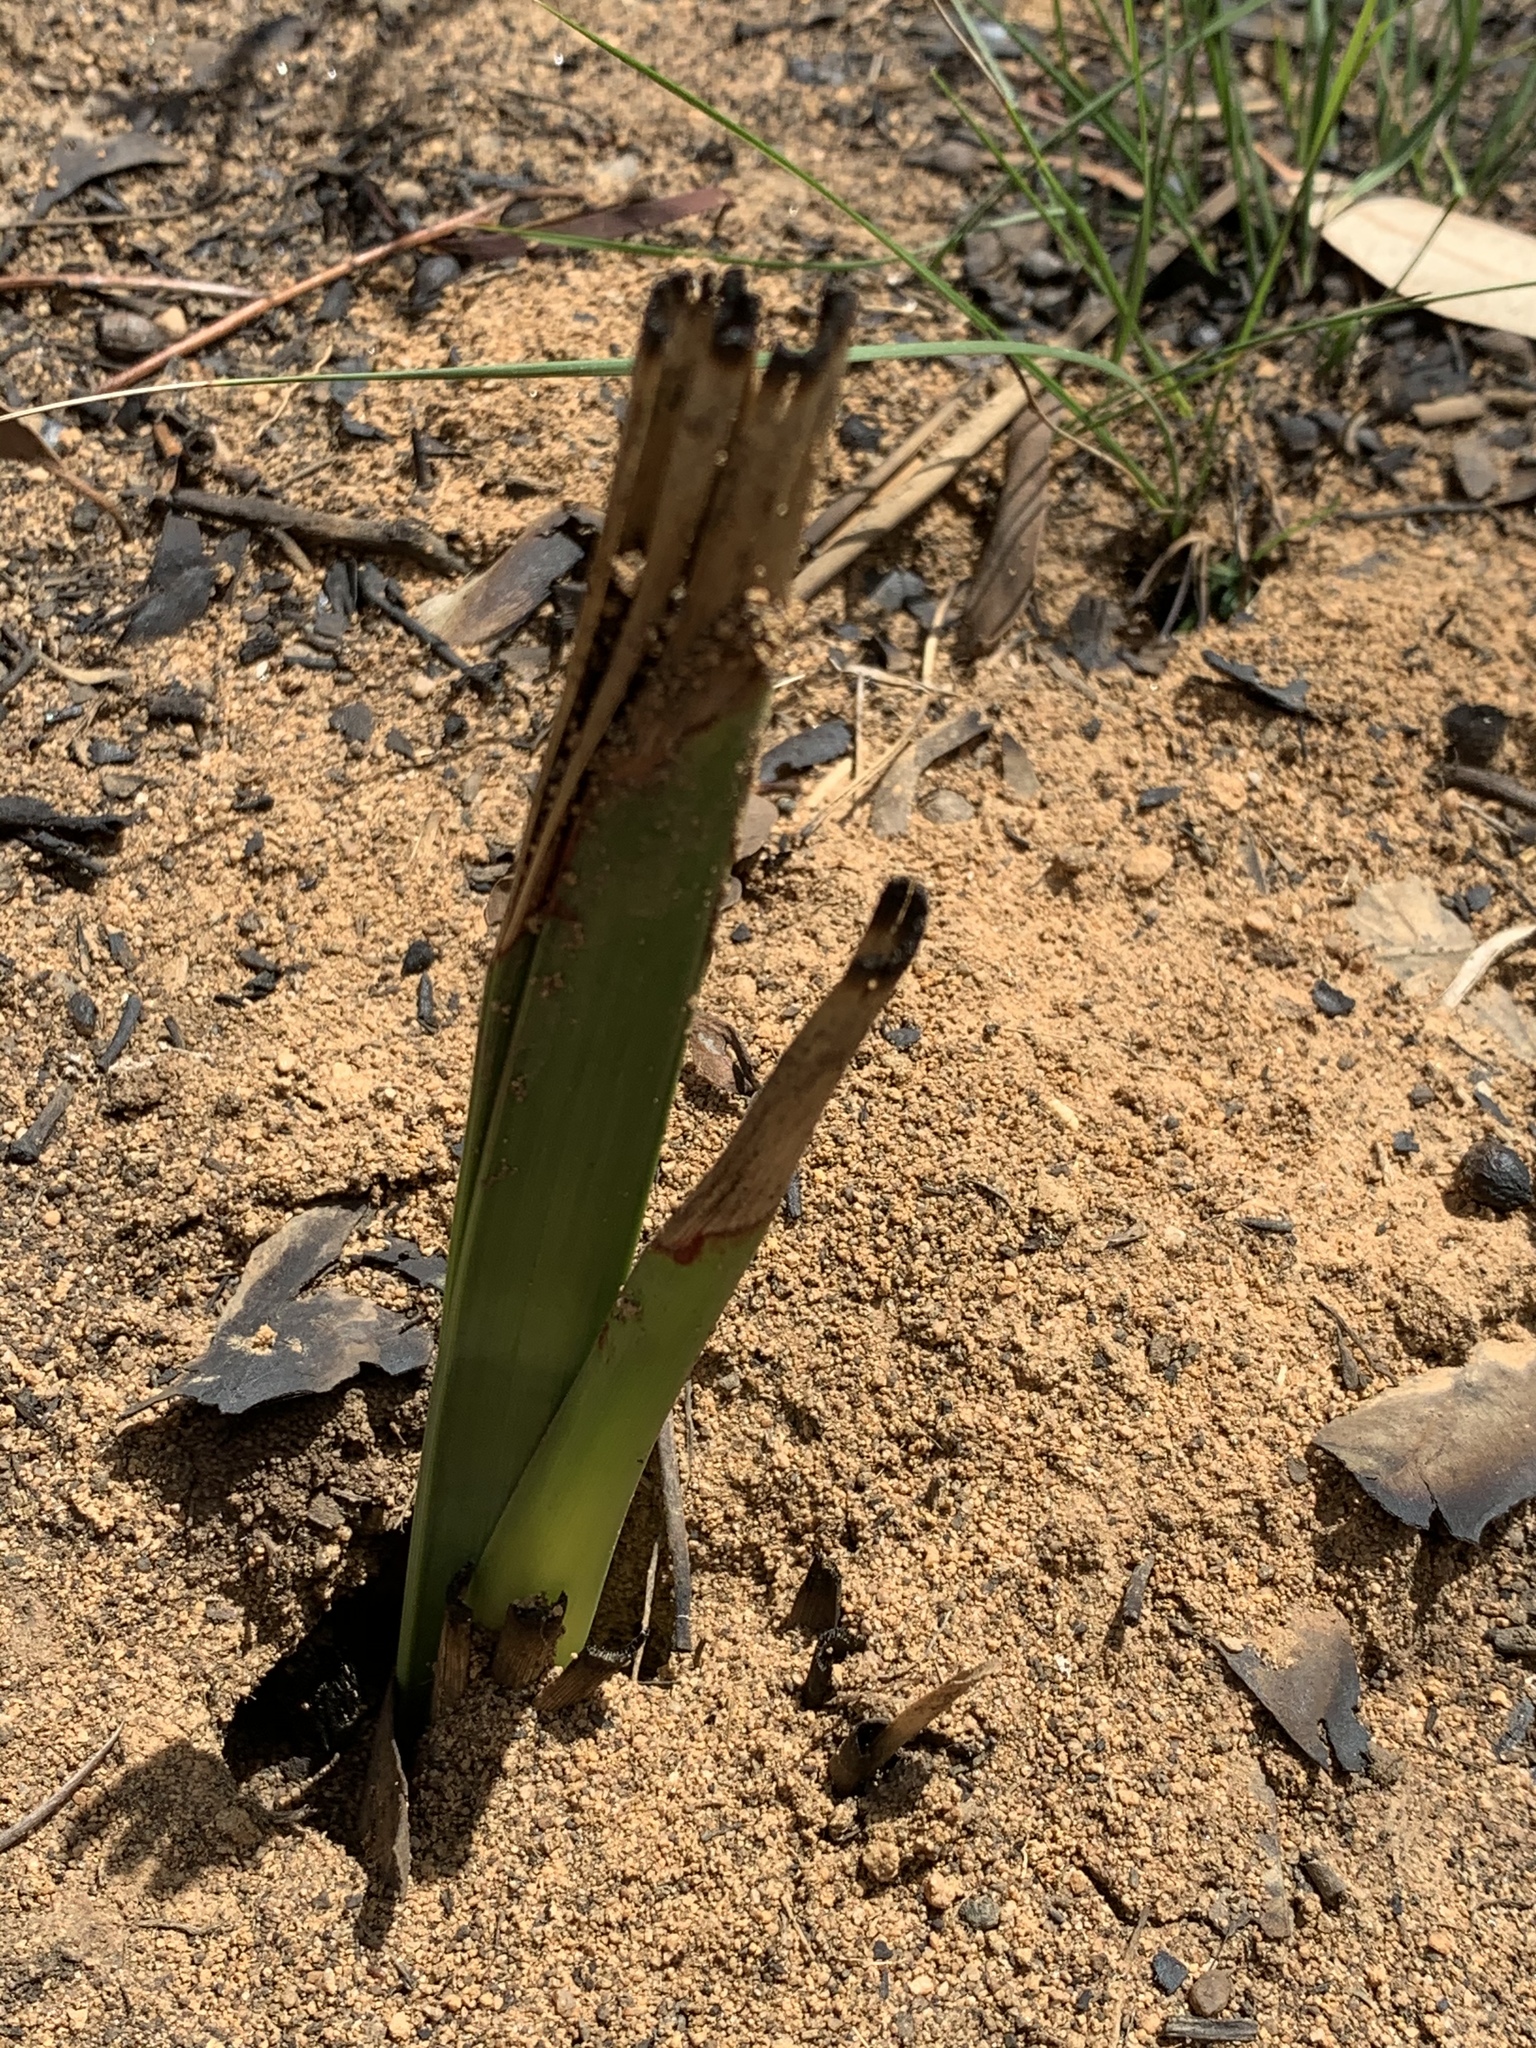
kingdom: Plantae
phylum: Tracheophyta
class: Liliopsida
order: Asparagales
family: Asparagaceae
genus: Lomandra
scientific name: Lomandra longifolia
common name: Longleaf mat-rush
